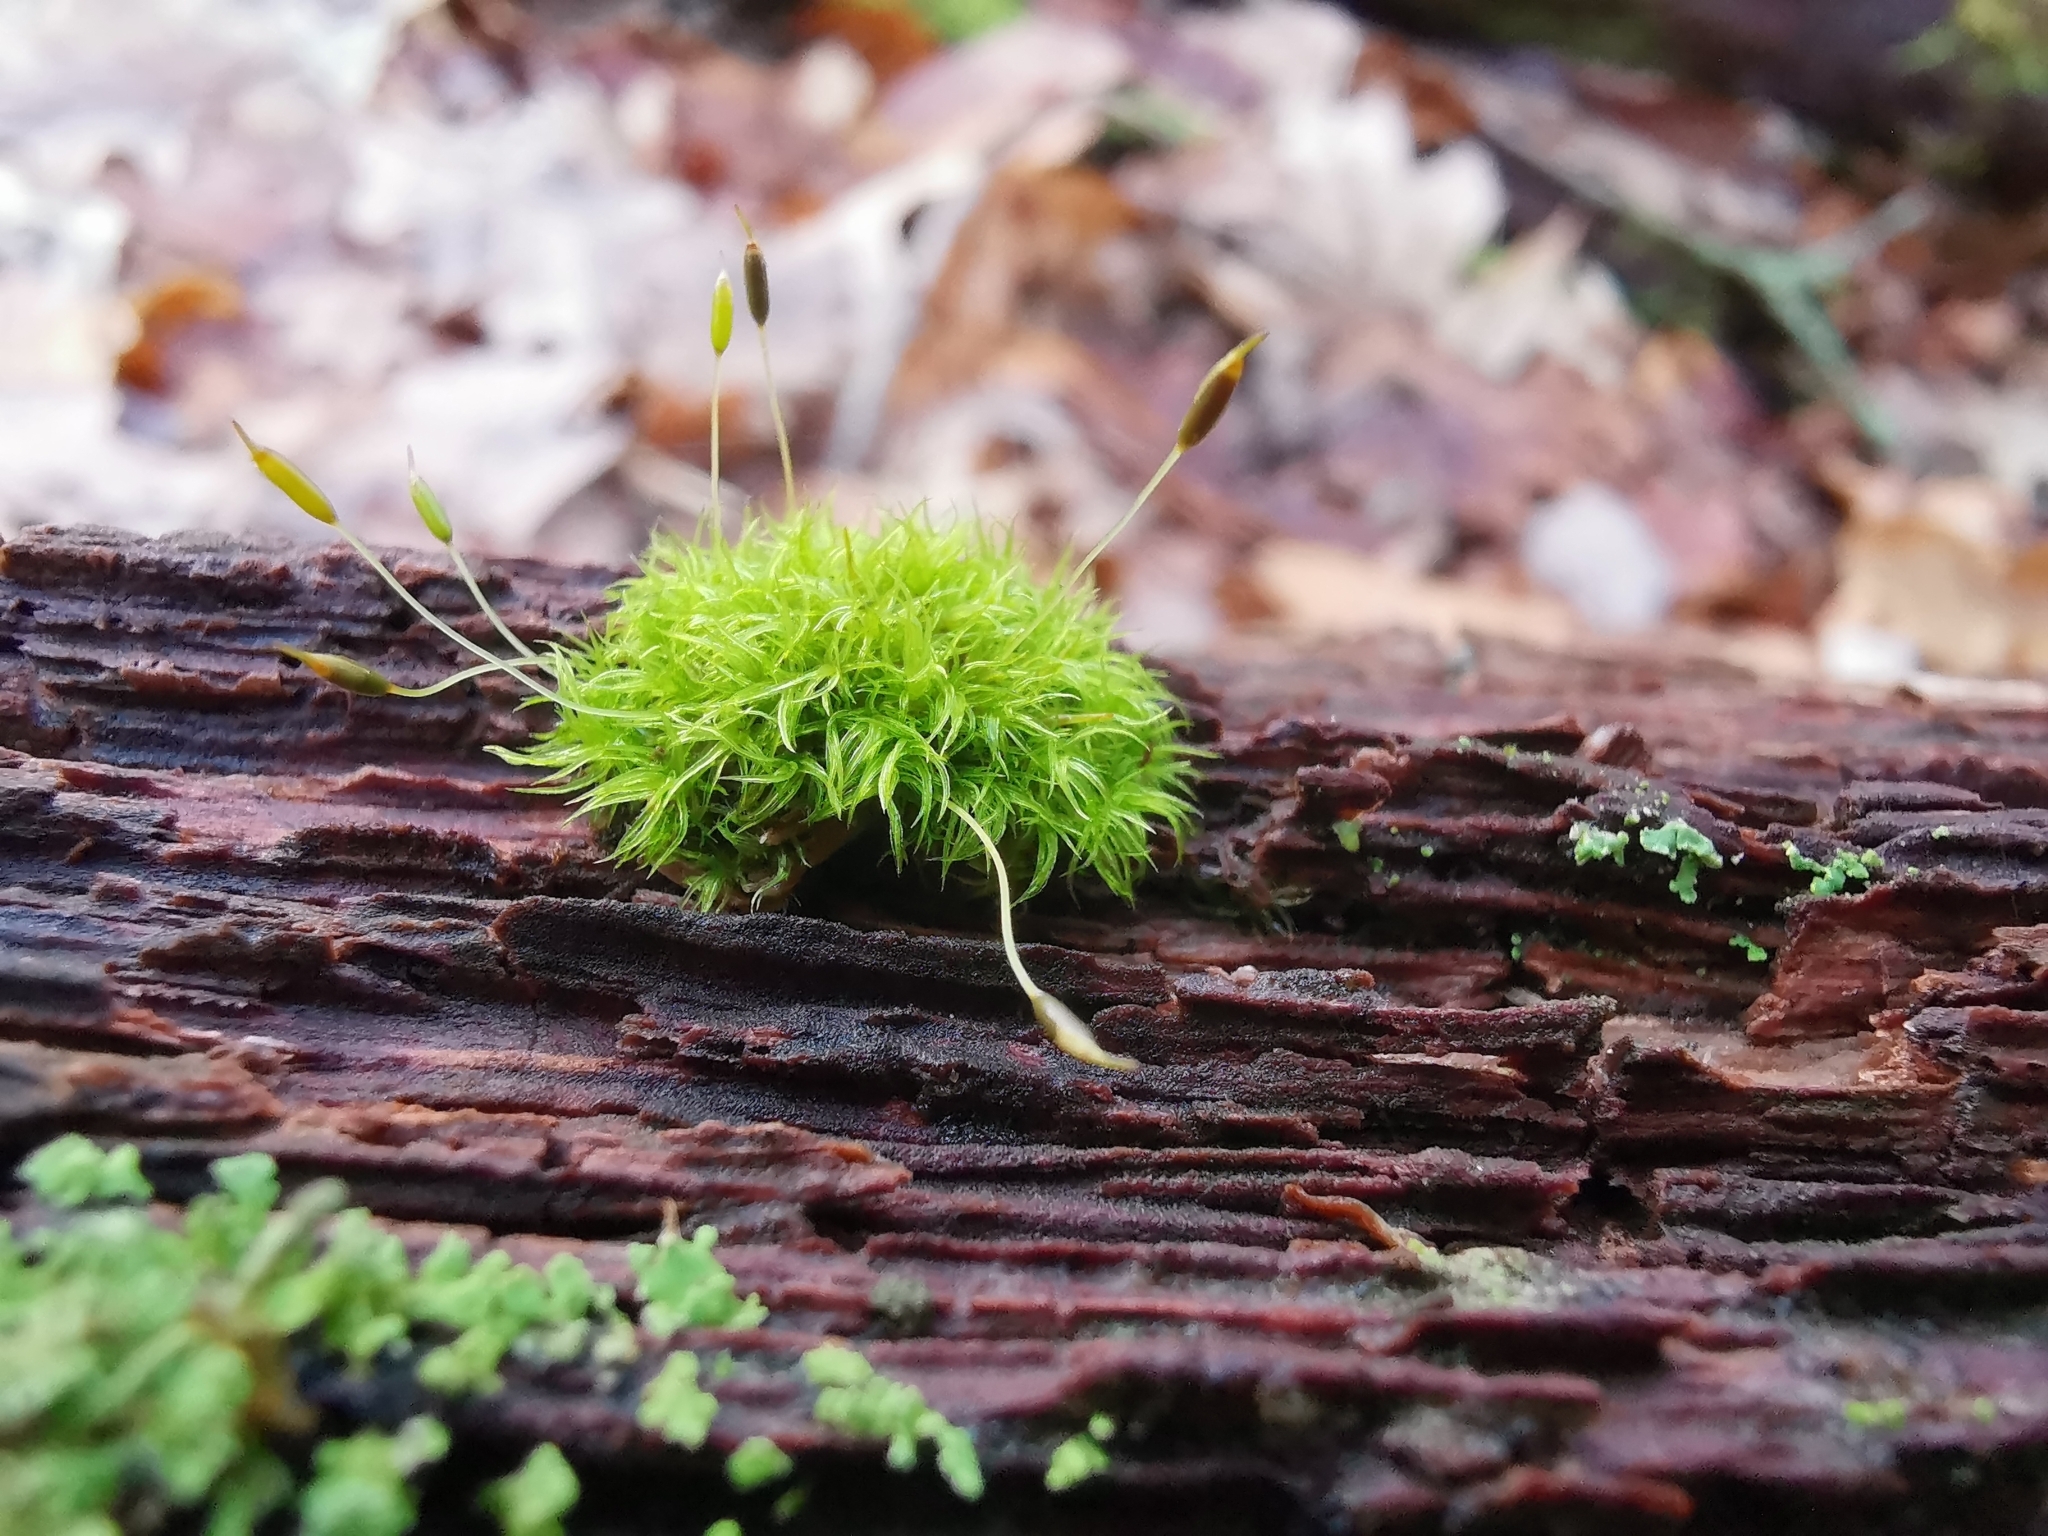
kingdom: Plantae
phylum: Bryophyta
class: Bryopsida
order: Dicranales
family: Rhabdoweisiaceae
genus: Dicranoweisia
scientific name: Dicranoweisia cirrata
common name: Common pincushion
